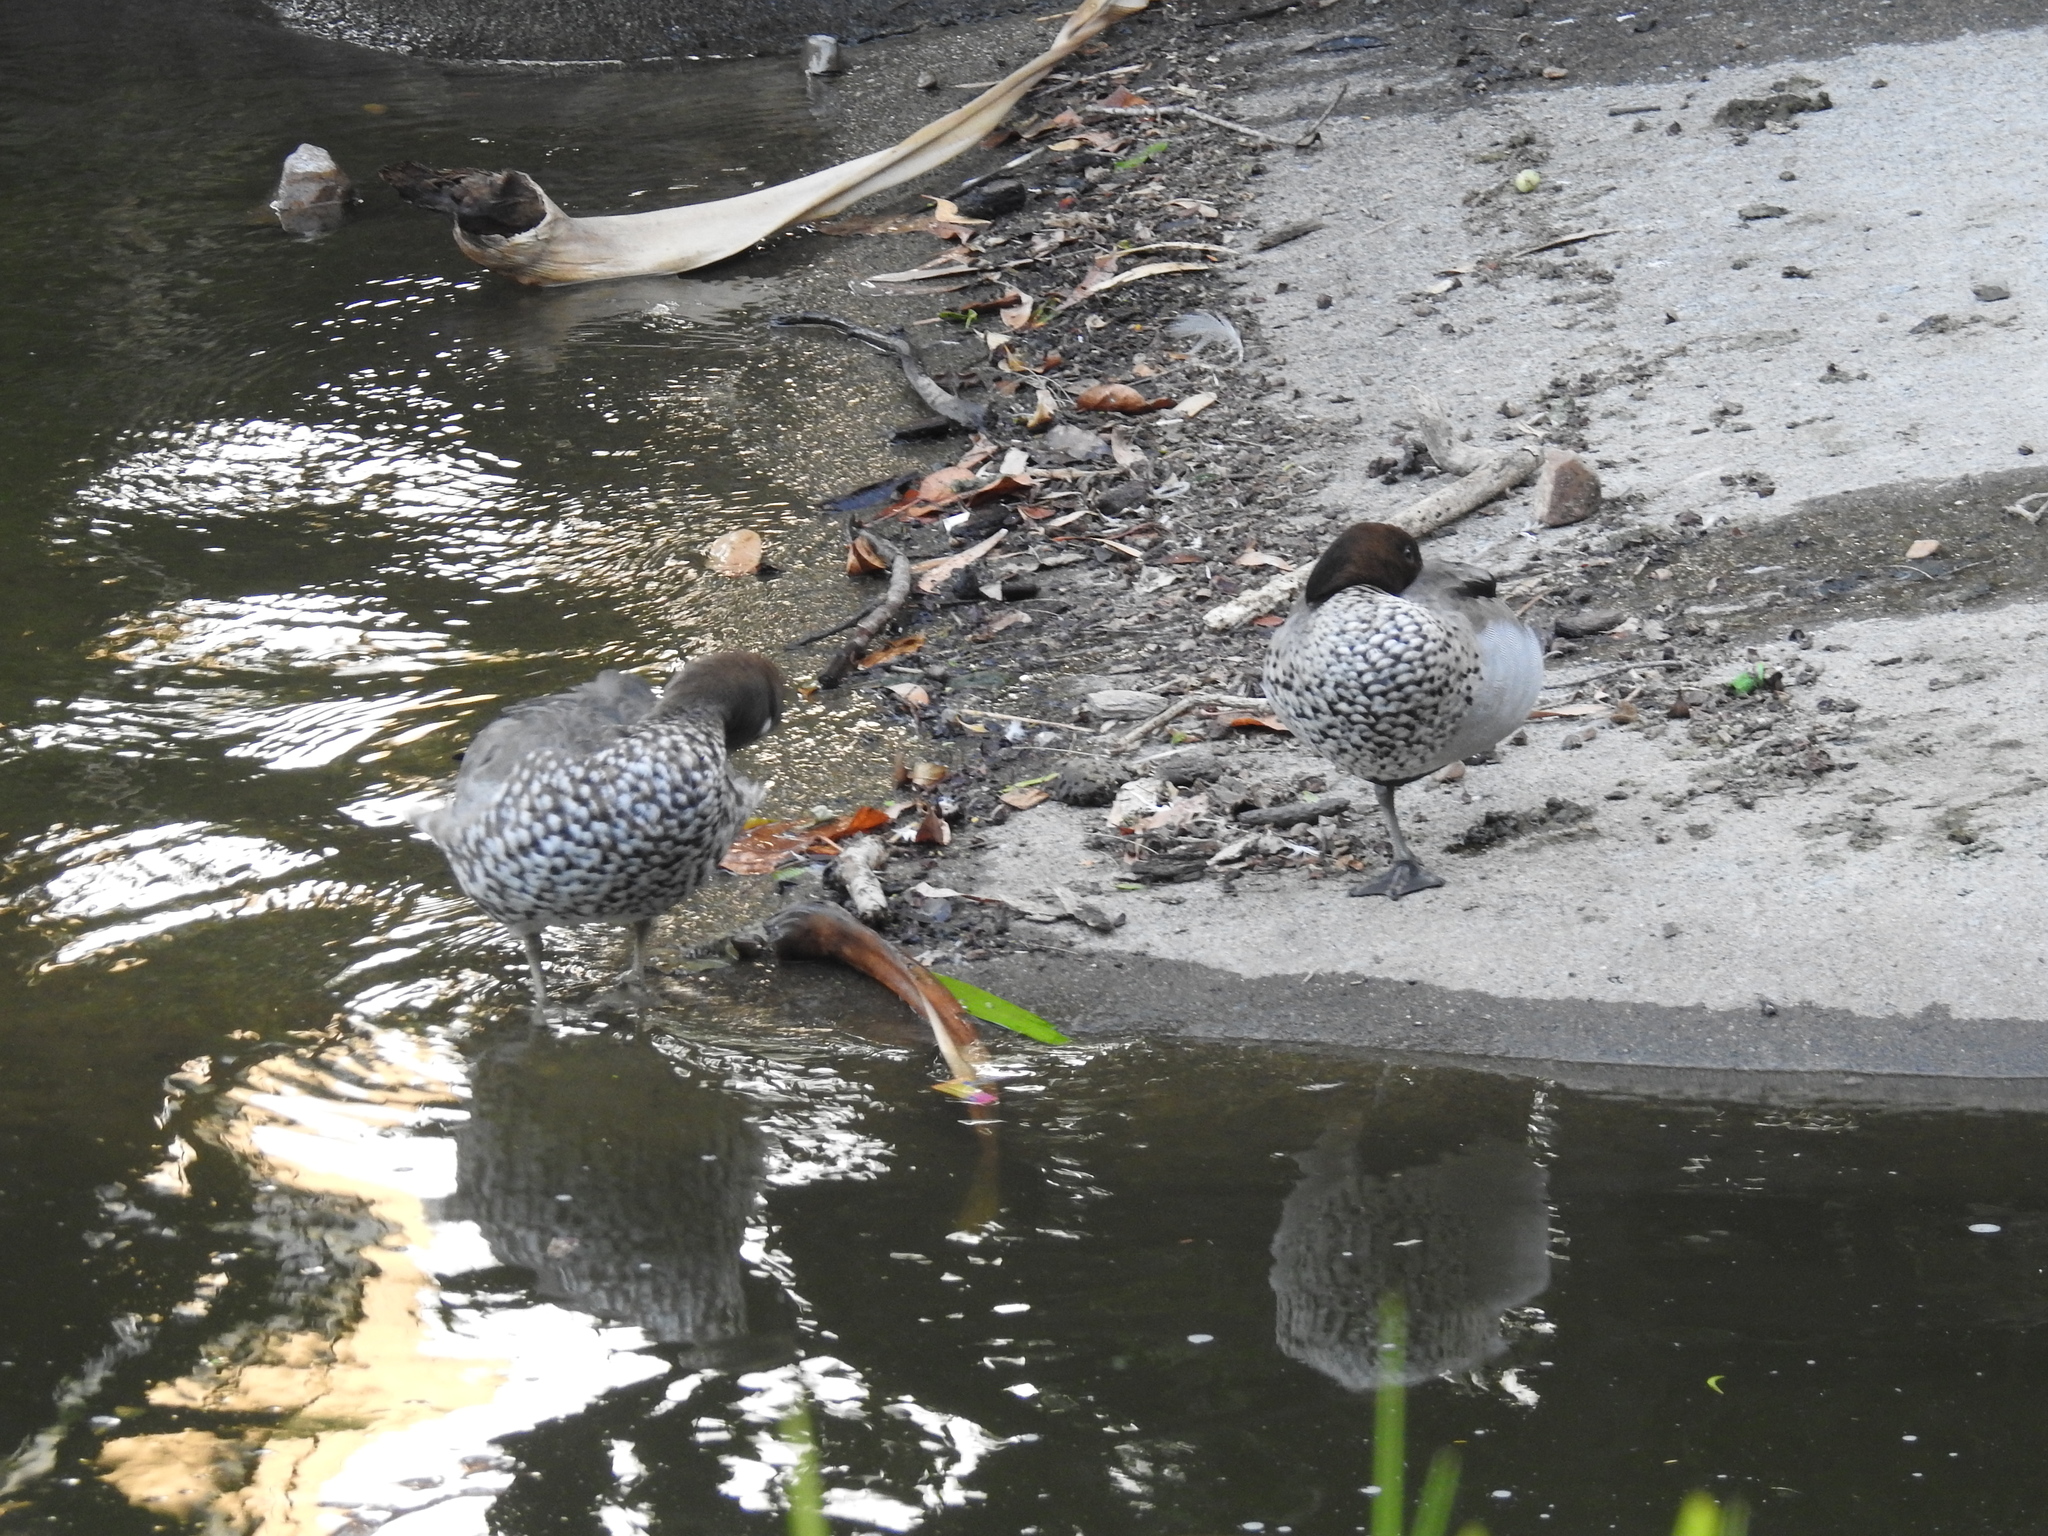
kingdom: Animalia
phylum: Chordata
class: Aves
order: Anseriformes
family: Anatidae
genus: Chenonetta
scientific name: Chenonetta jubata
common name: Maned duck
